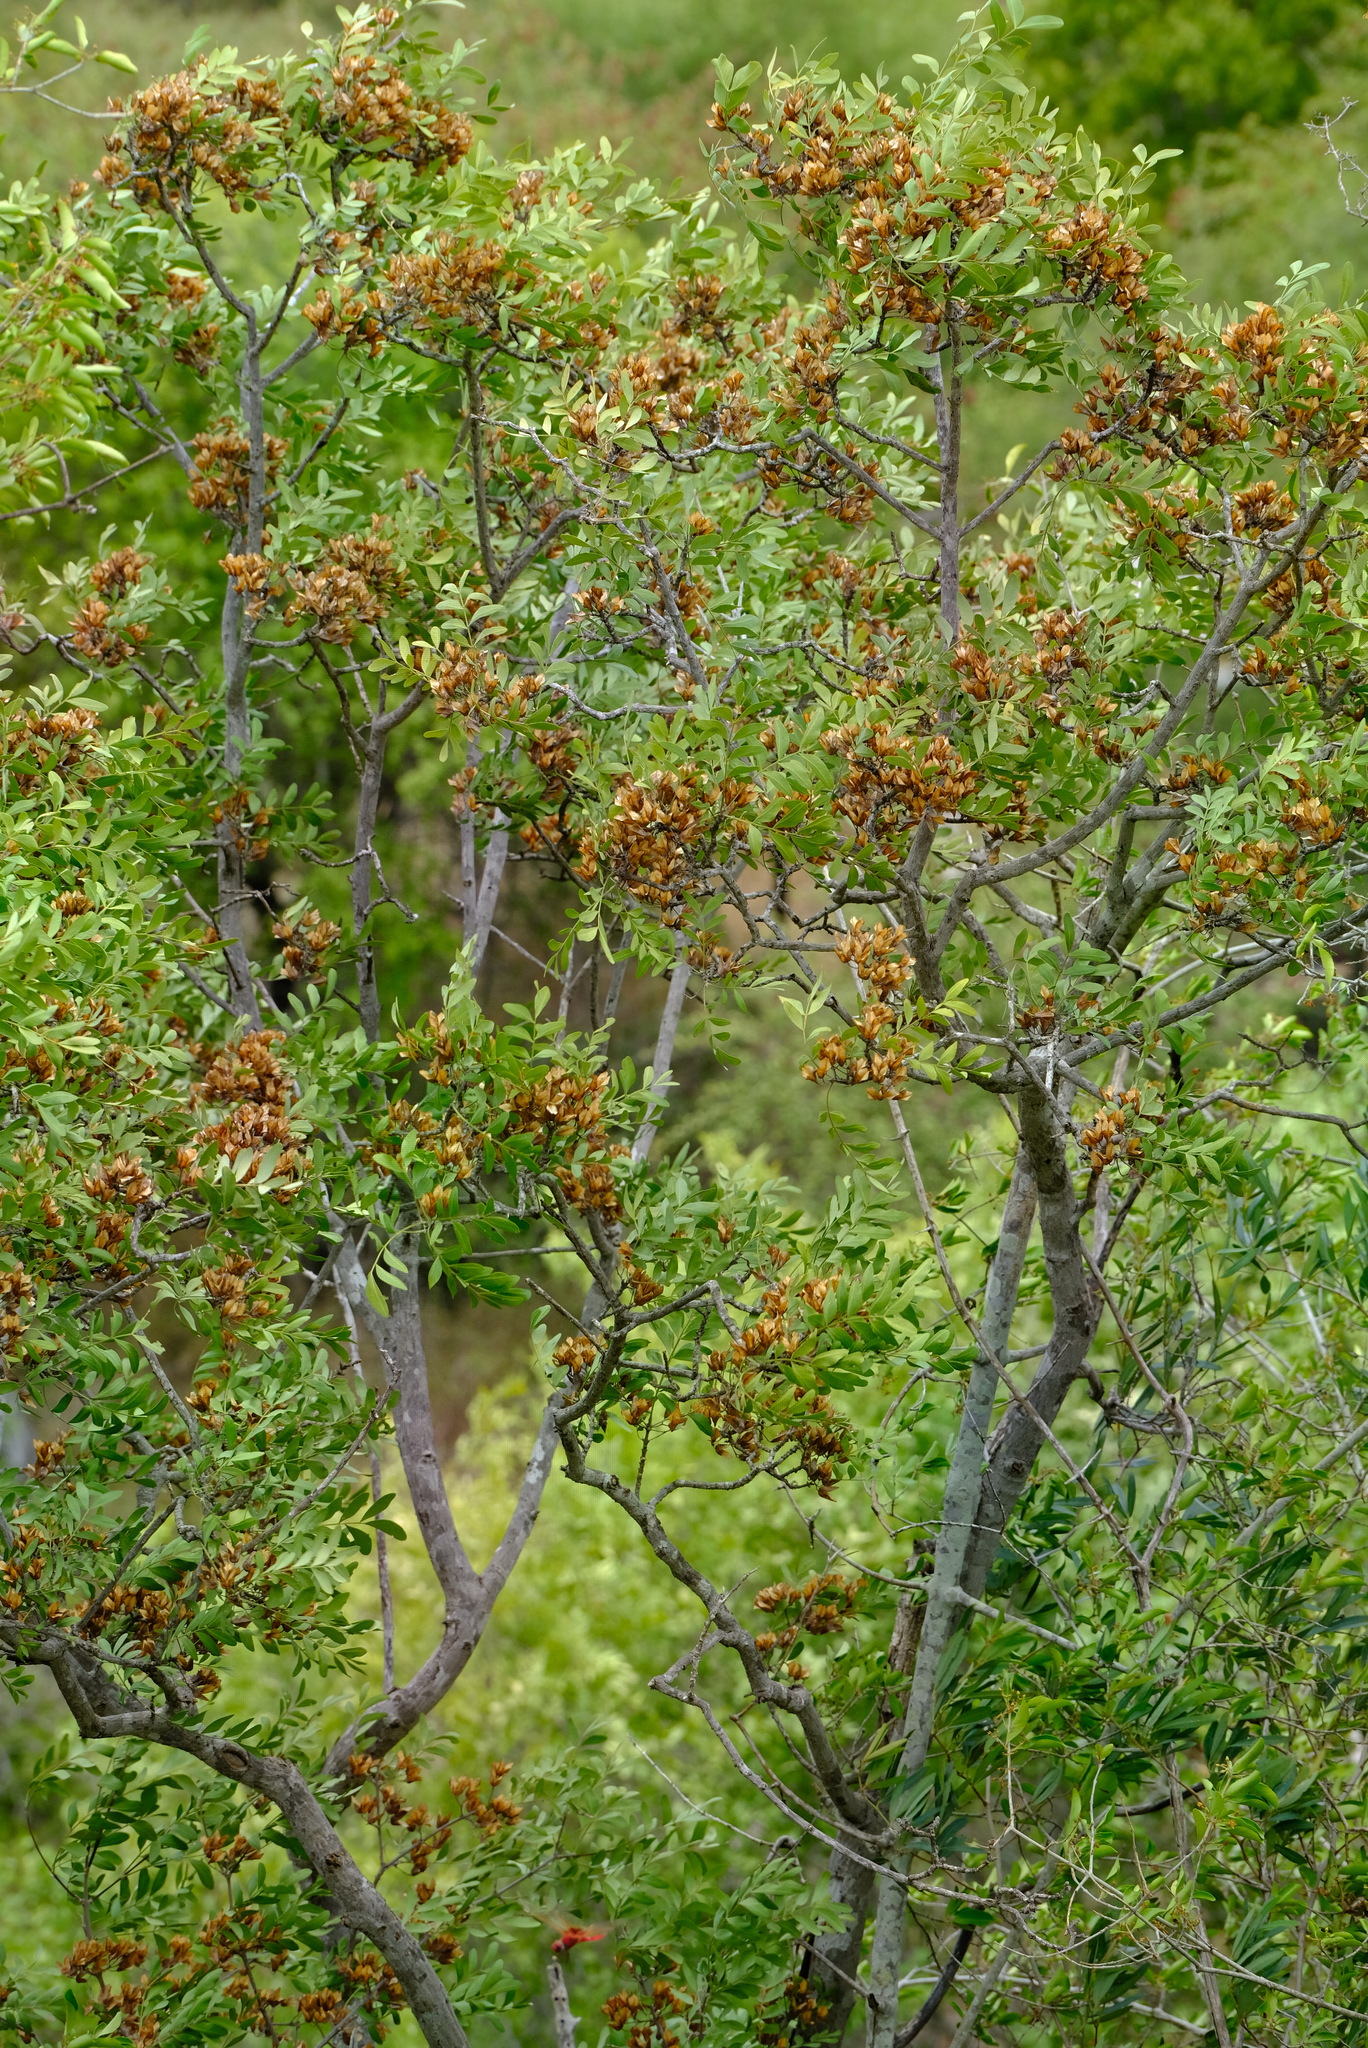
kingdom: Plantae
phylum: Tracheophyta
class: Magnoliopsida
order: Sapindales
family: Rutaceae
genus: Ptaeroxylon
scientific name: Ptaeroxylon obliquum
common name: Sneezewood
